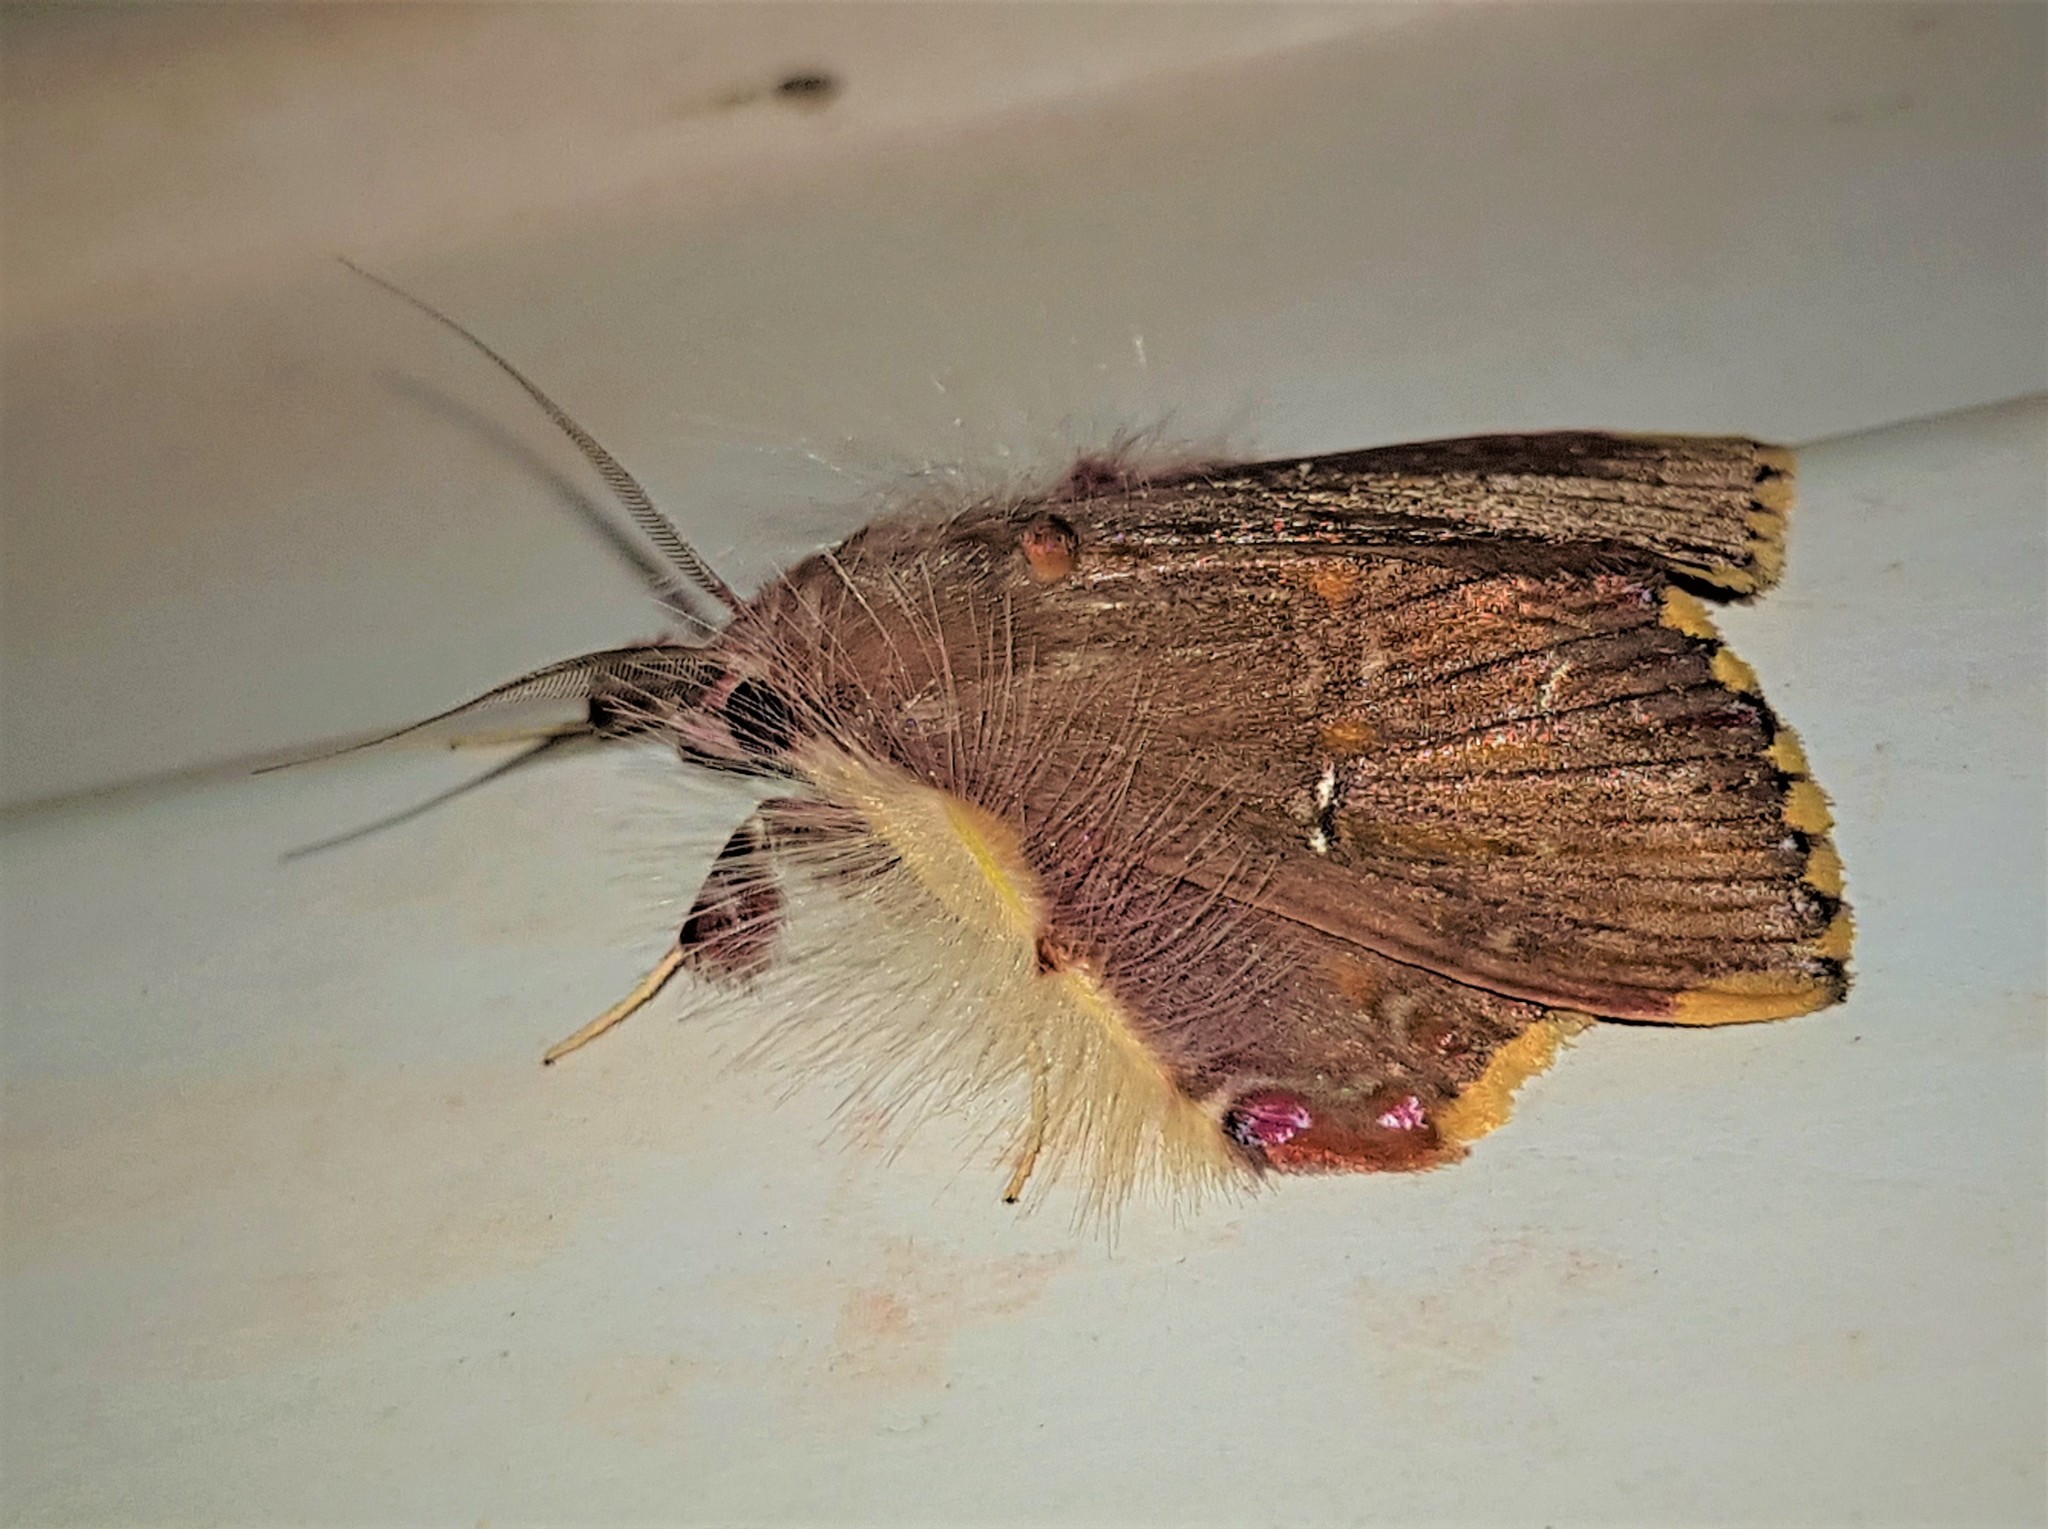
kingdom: Animalia
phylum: Arthropoda
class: Insecta
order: Lepidoptera
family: Erebidae
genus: Sosxetra
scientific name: Sosxetra grata
